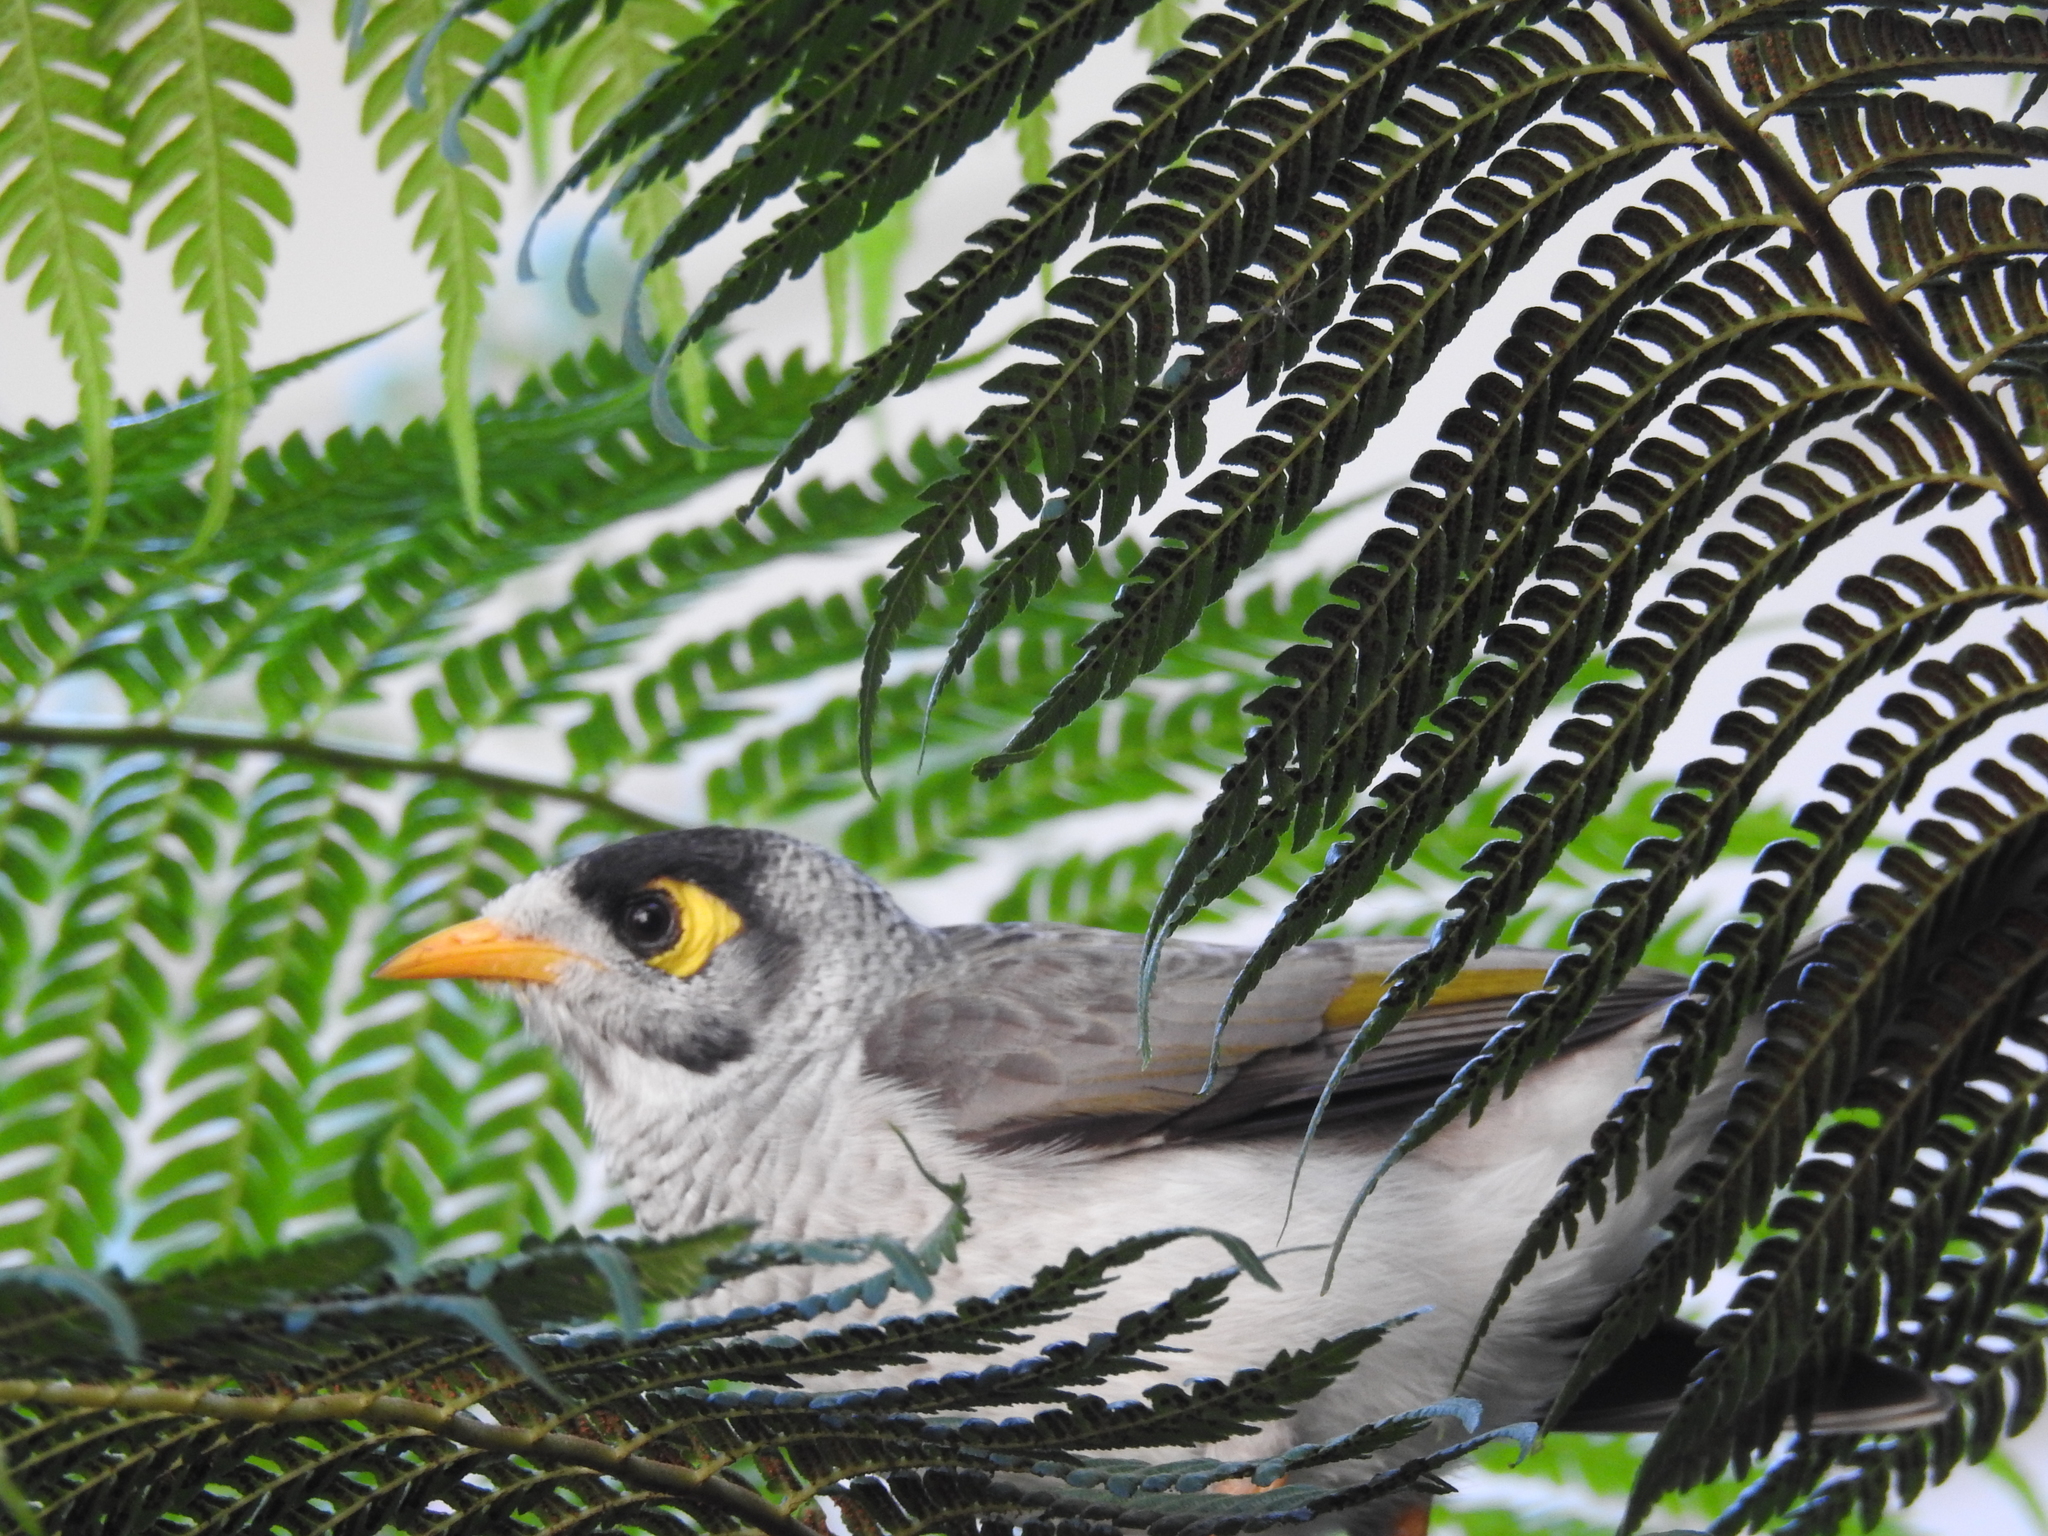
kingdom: Animalia
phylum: Chordata
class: Aves
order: Passeriformes
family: Meliphagidae
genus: Manorina
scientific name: Manorina melanocephala
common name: Noisy miner
